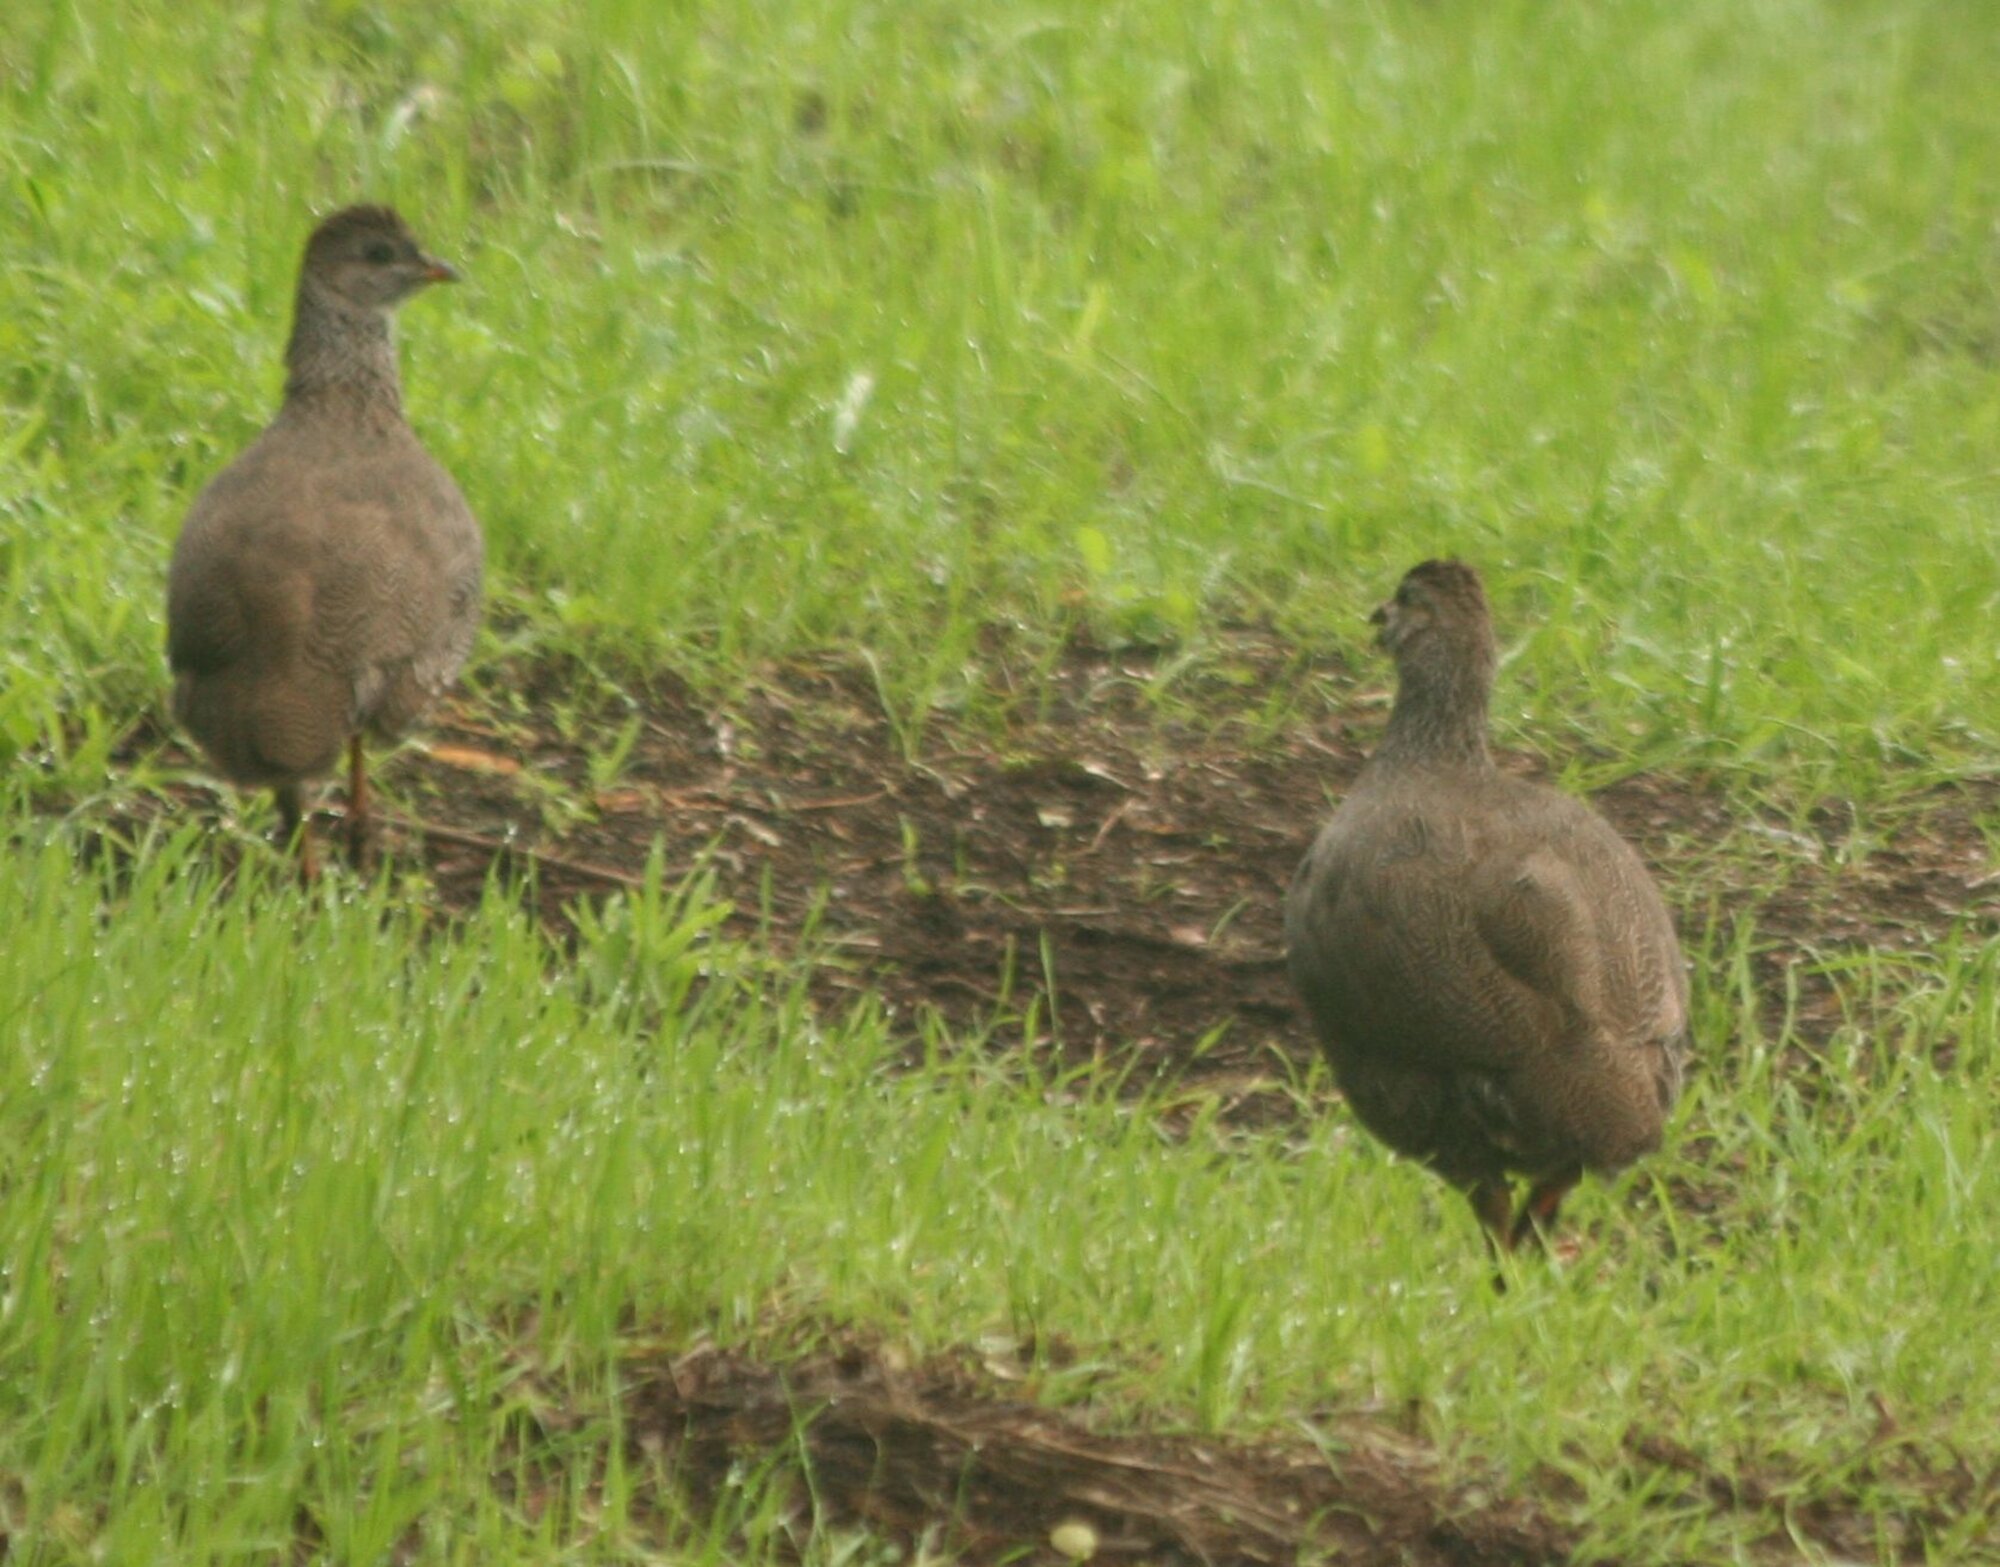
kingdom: Animalia
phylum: Chordata
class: Aves
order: Galliformes
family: Phasianidae
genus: Pternistis
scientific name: Pternistis capensis
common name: Cape spurfowl
